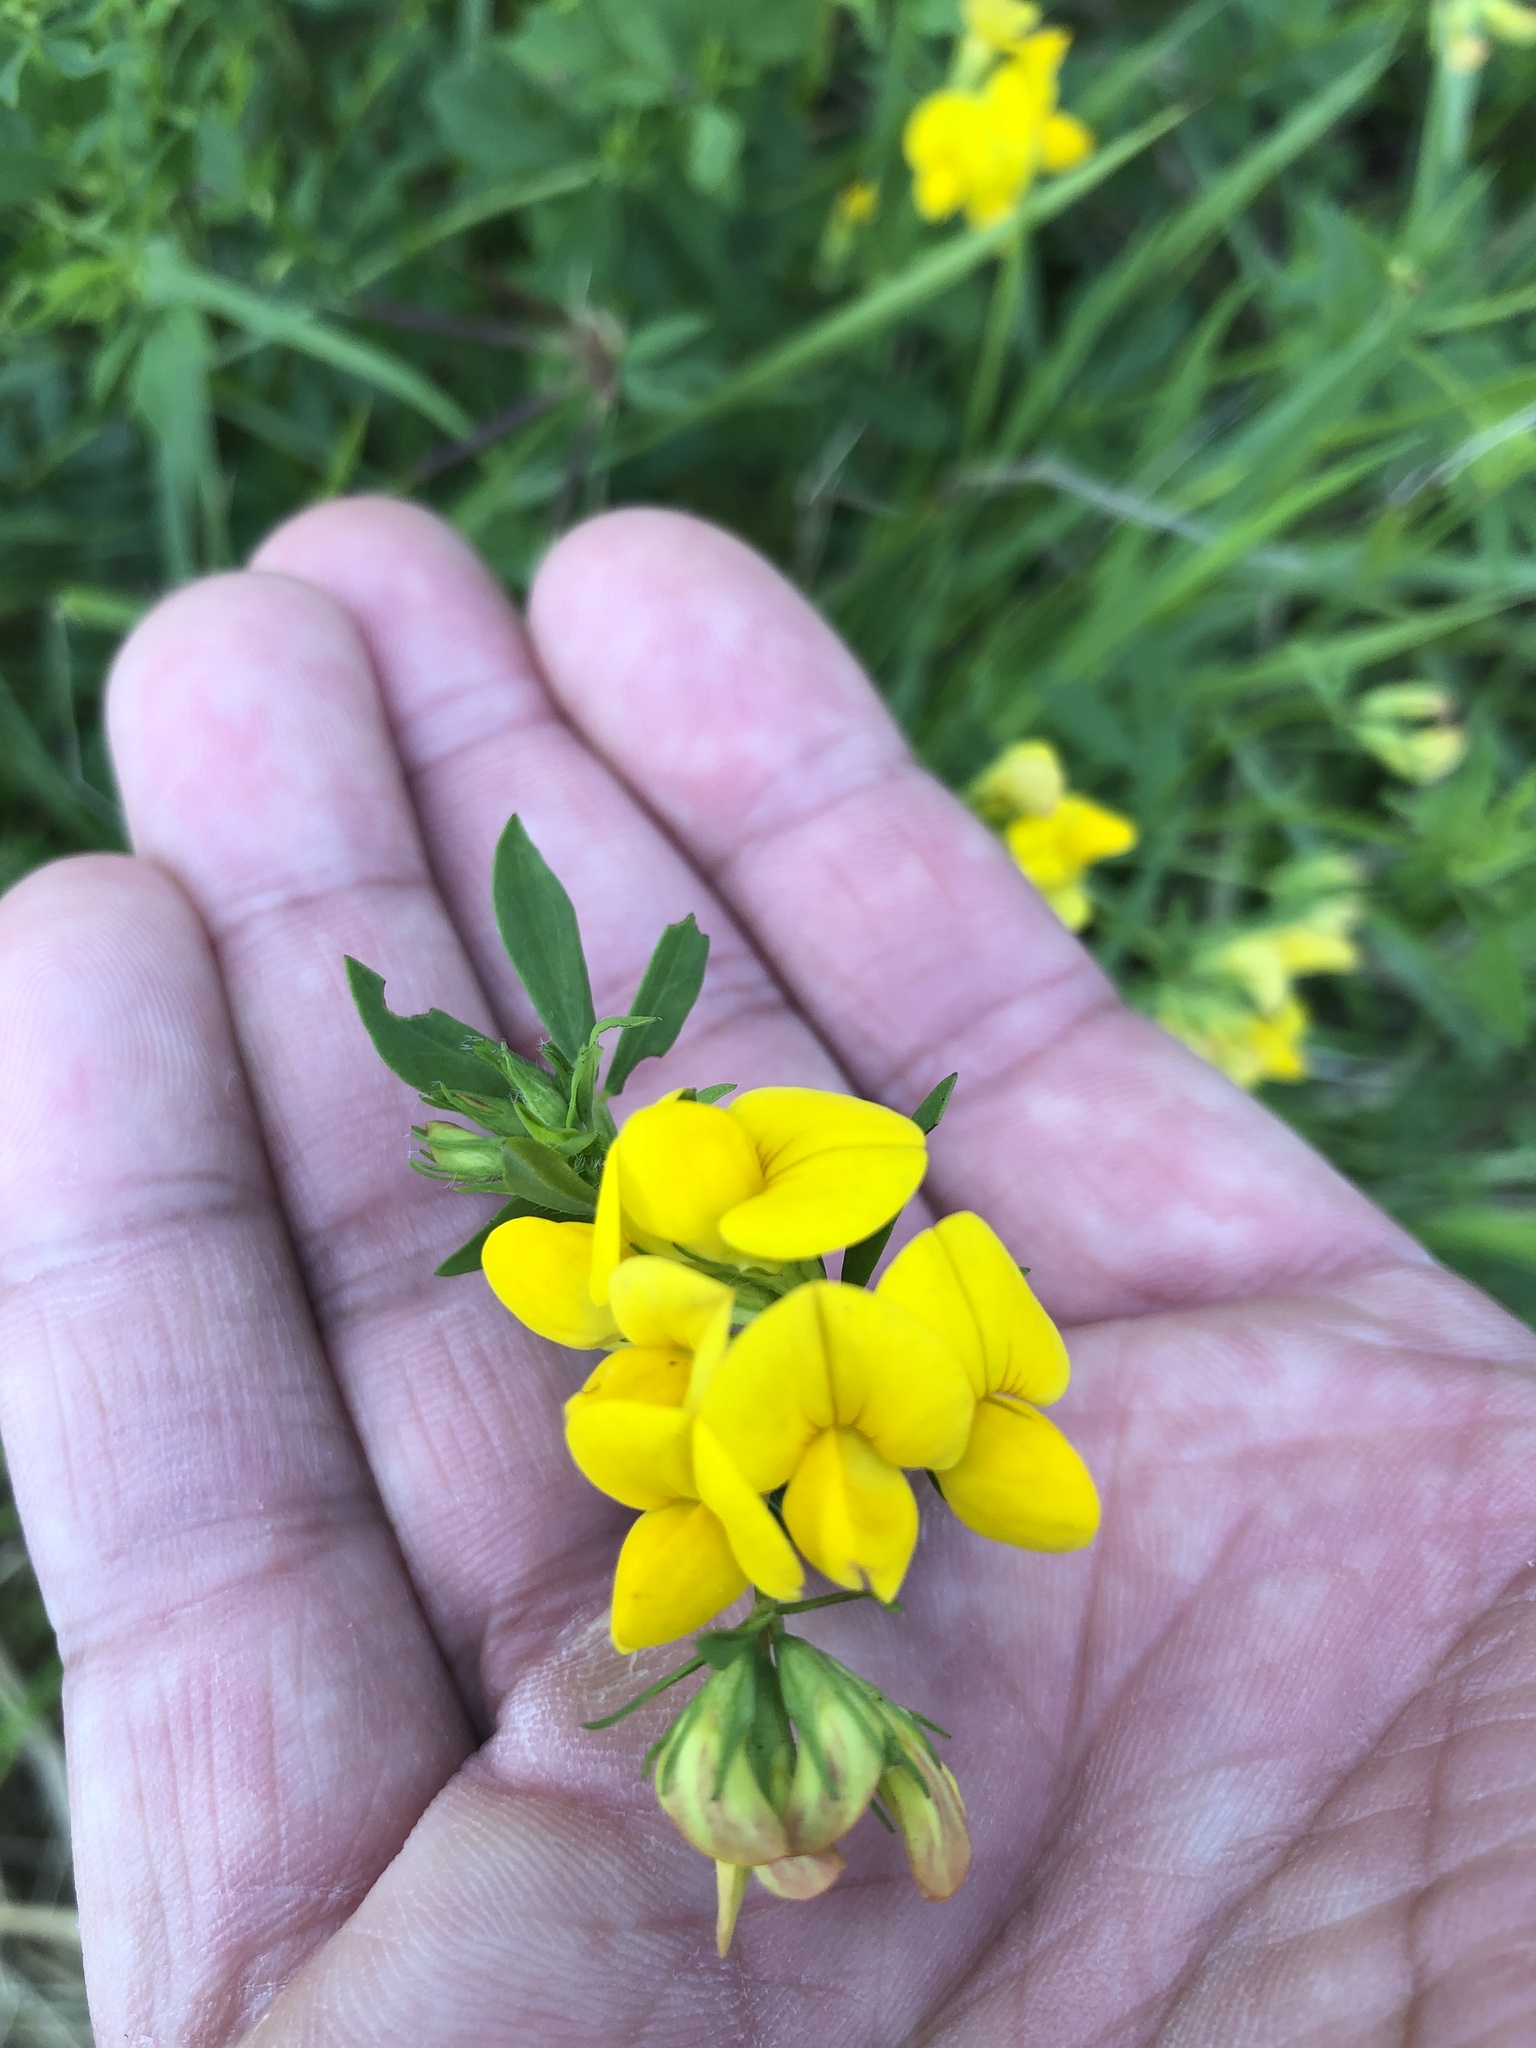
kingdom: Plantae
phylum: Tracheophyta
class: Magnoliopsida
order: Fabales
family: Fabaceae
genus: Lotus
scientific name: Lotus corniculatus
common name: Common bird's-foot-trefoil
